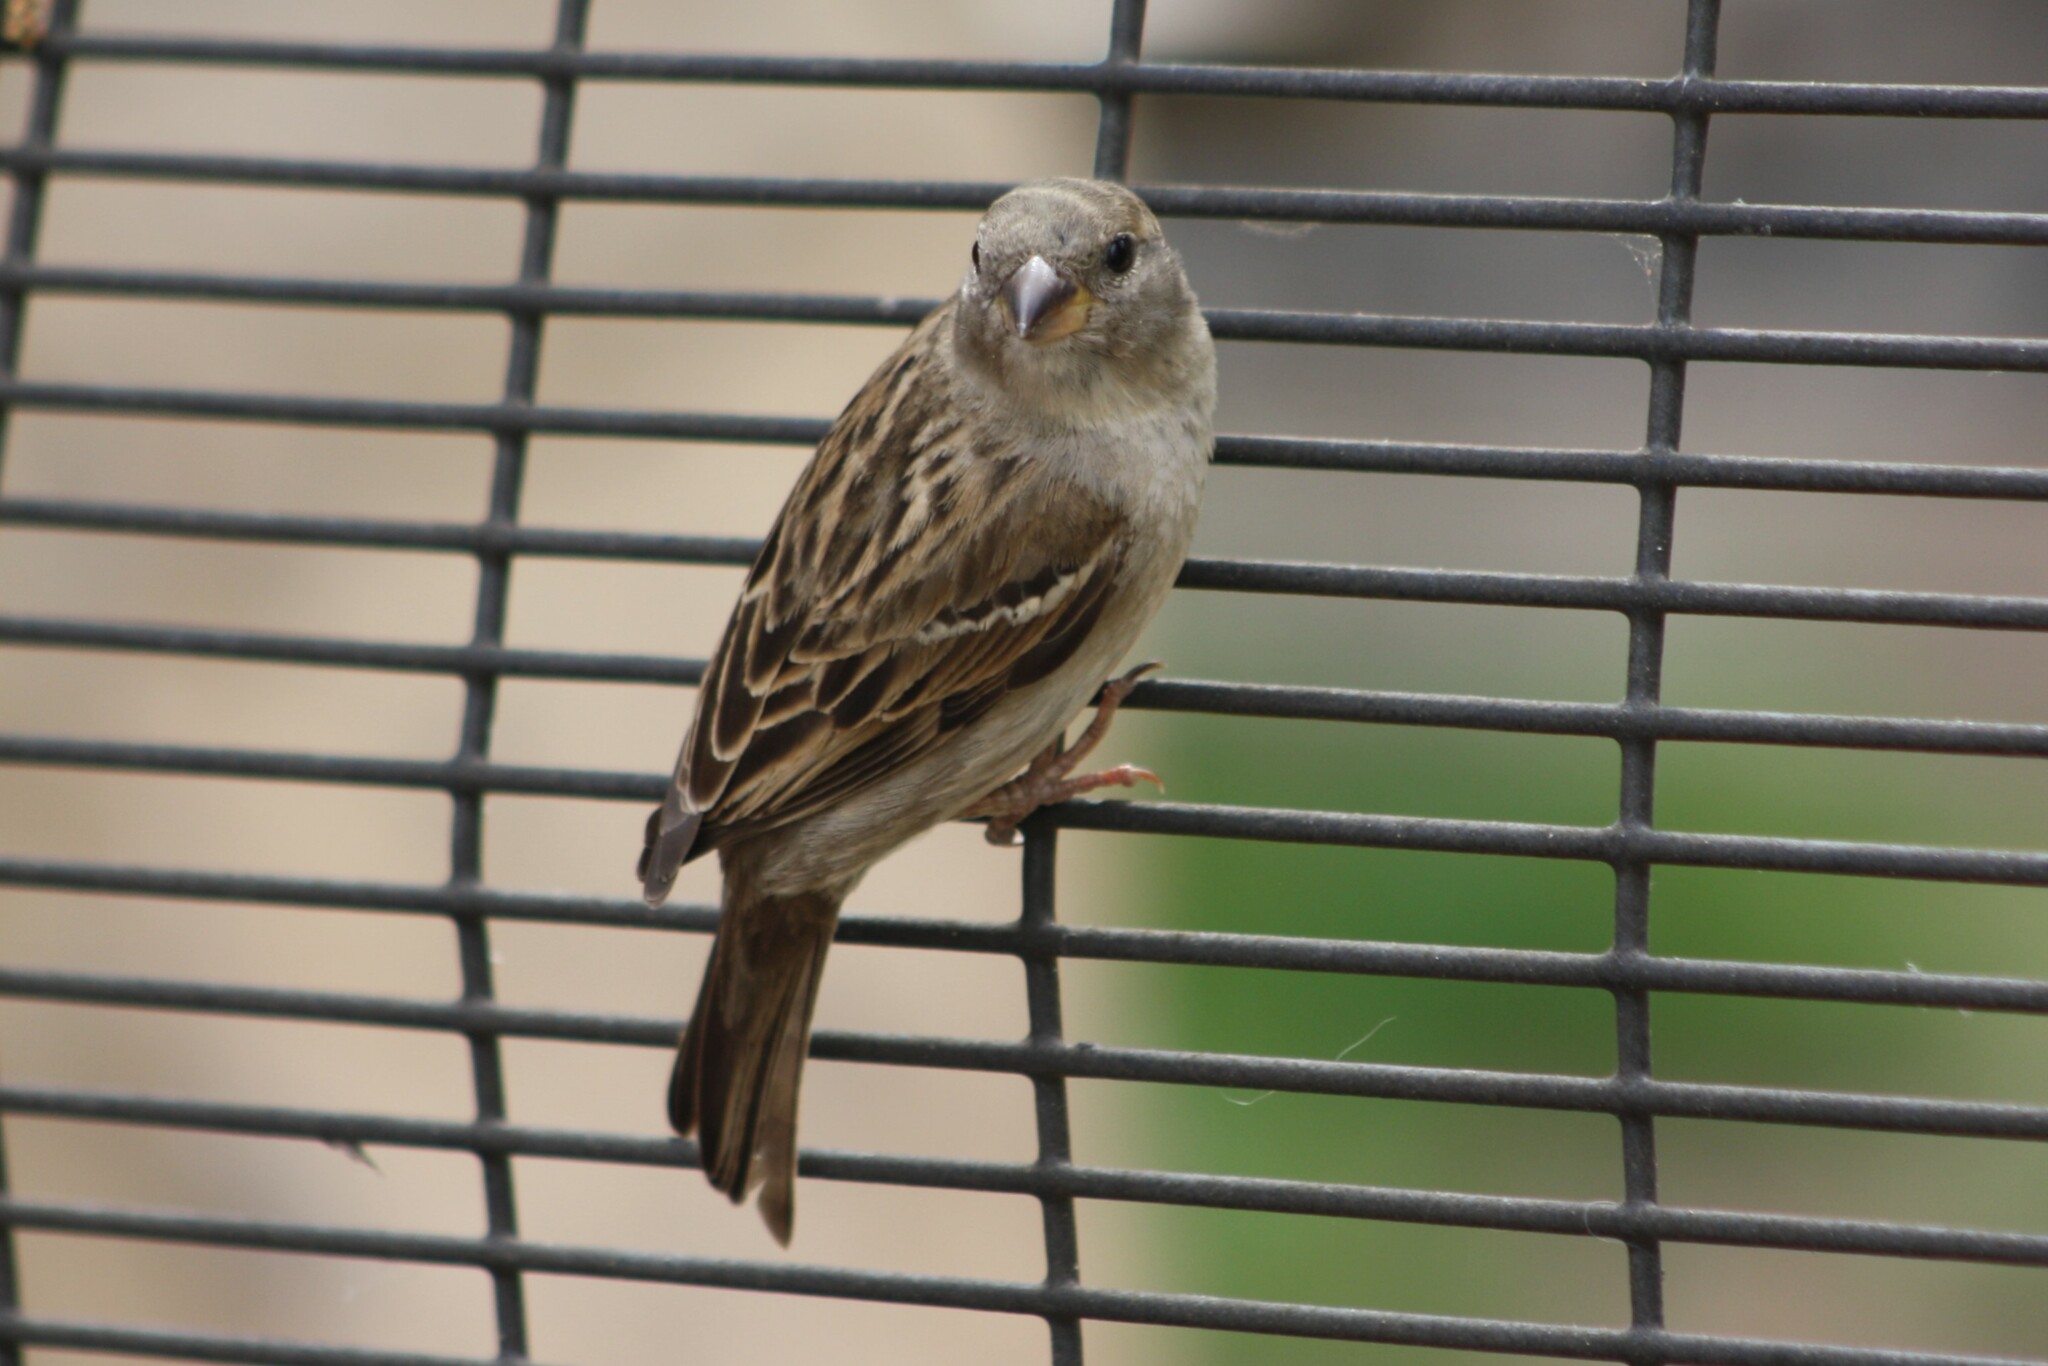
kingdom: Animalia
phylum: Chordata
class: Aves
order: Passeriformes
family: Passeridae
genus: Passer
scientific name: Passer domesticus
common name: House sparrow
